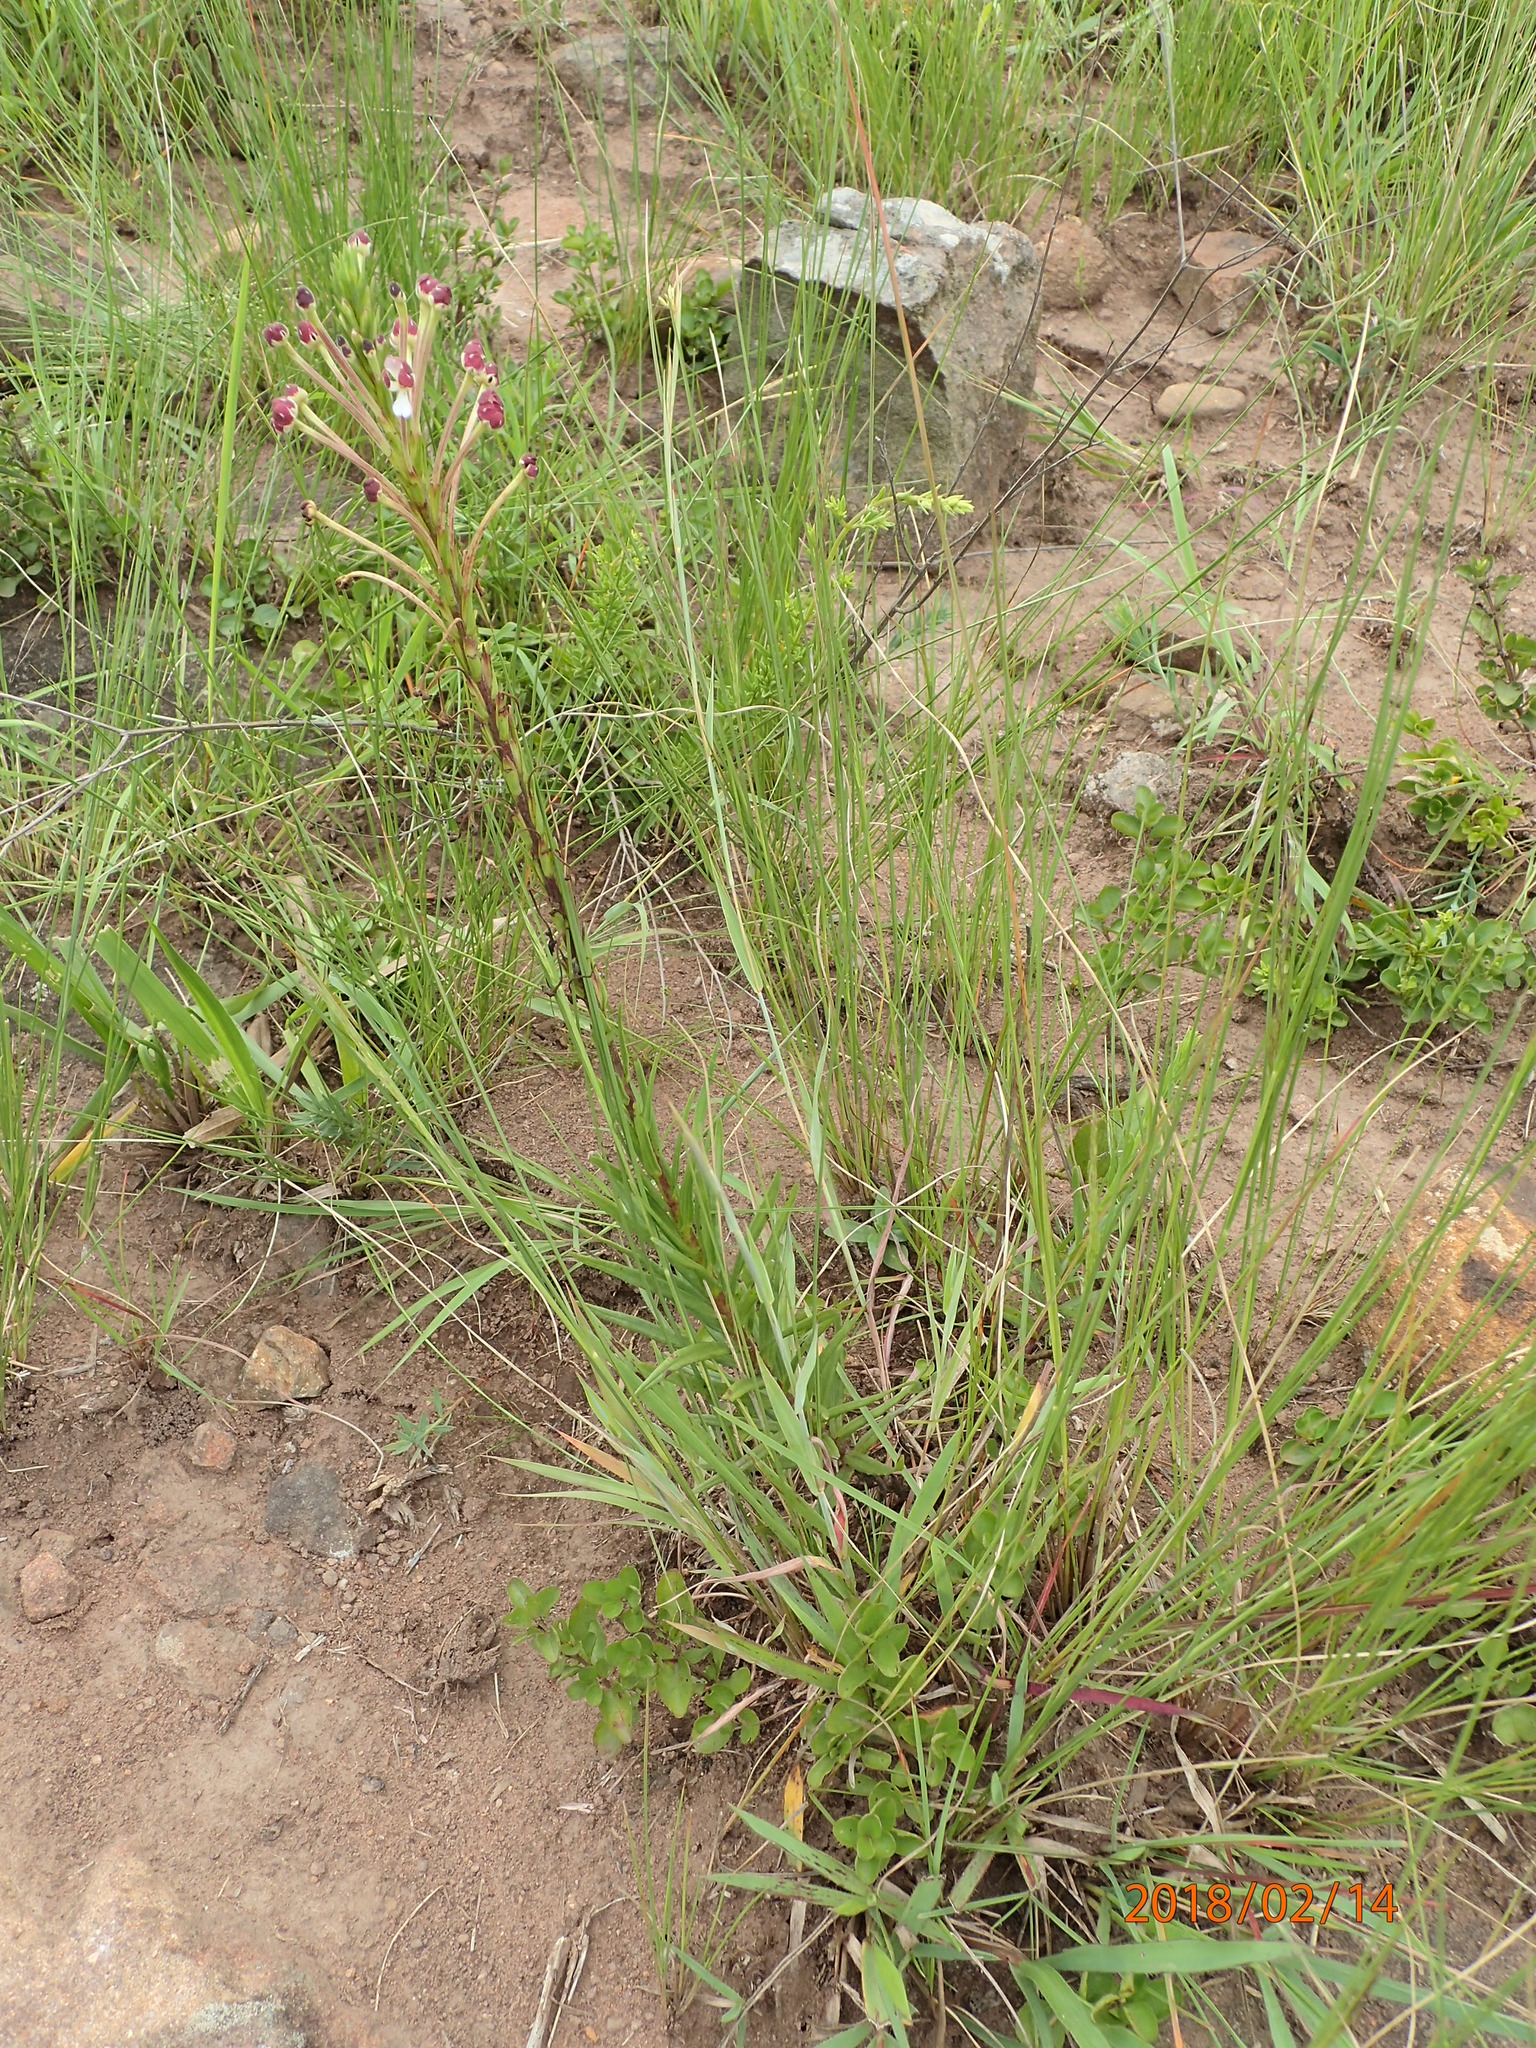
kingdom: Plantae
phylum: Tracheophyta
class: Magnoliopsida
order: Lamiales
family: Scrophulariaceae
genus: Zaluzianskya
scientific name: Zaluzianskya elongata
